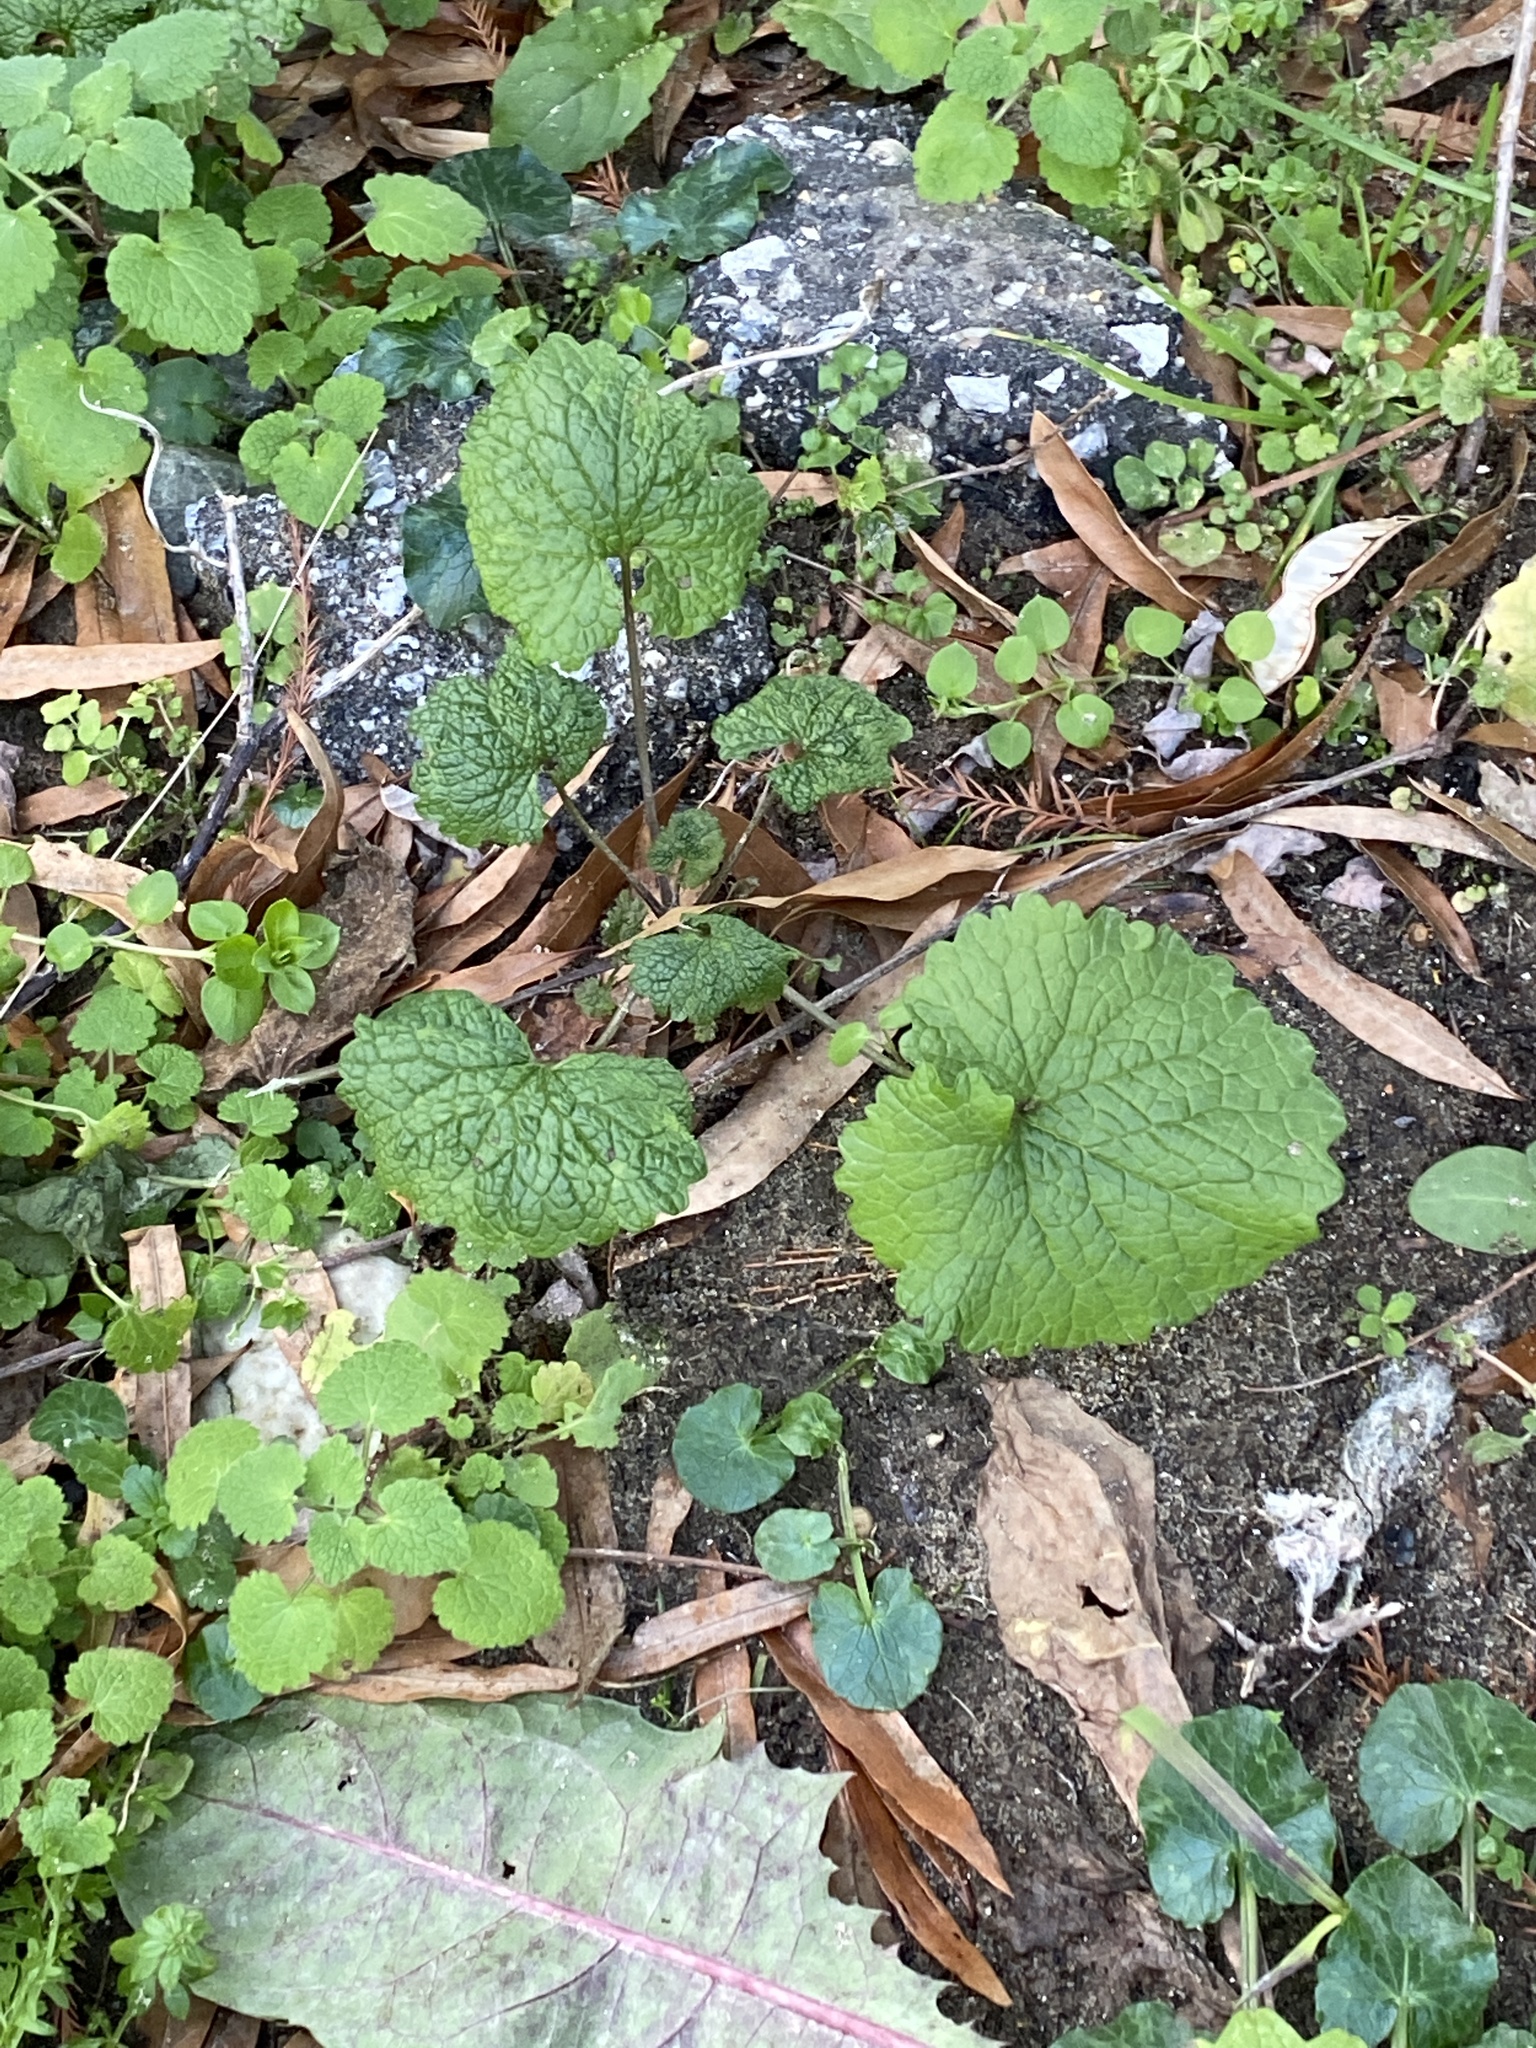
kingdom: Plantae
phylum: Tracheophyta
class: Magnoliopsida
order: Brassicales
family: Brassicaceae
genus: Alliaria
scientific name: Alliaria petiolata
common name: Garlic mustard
